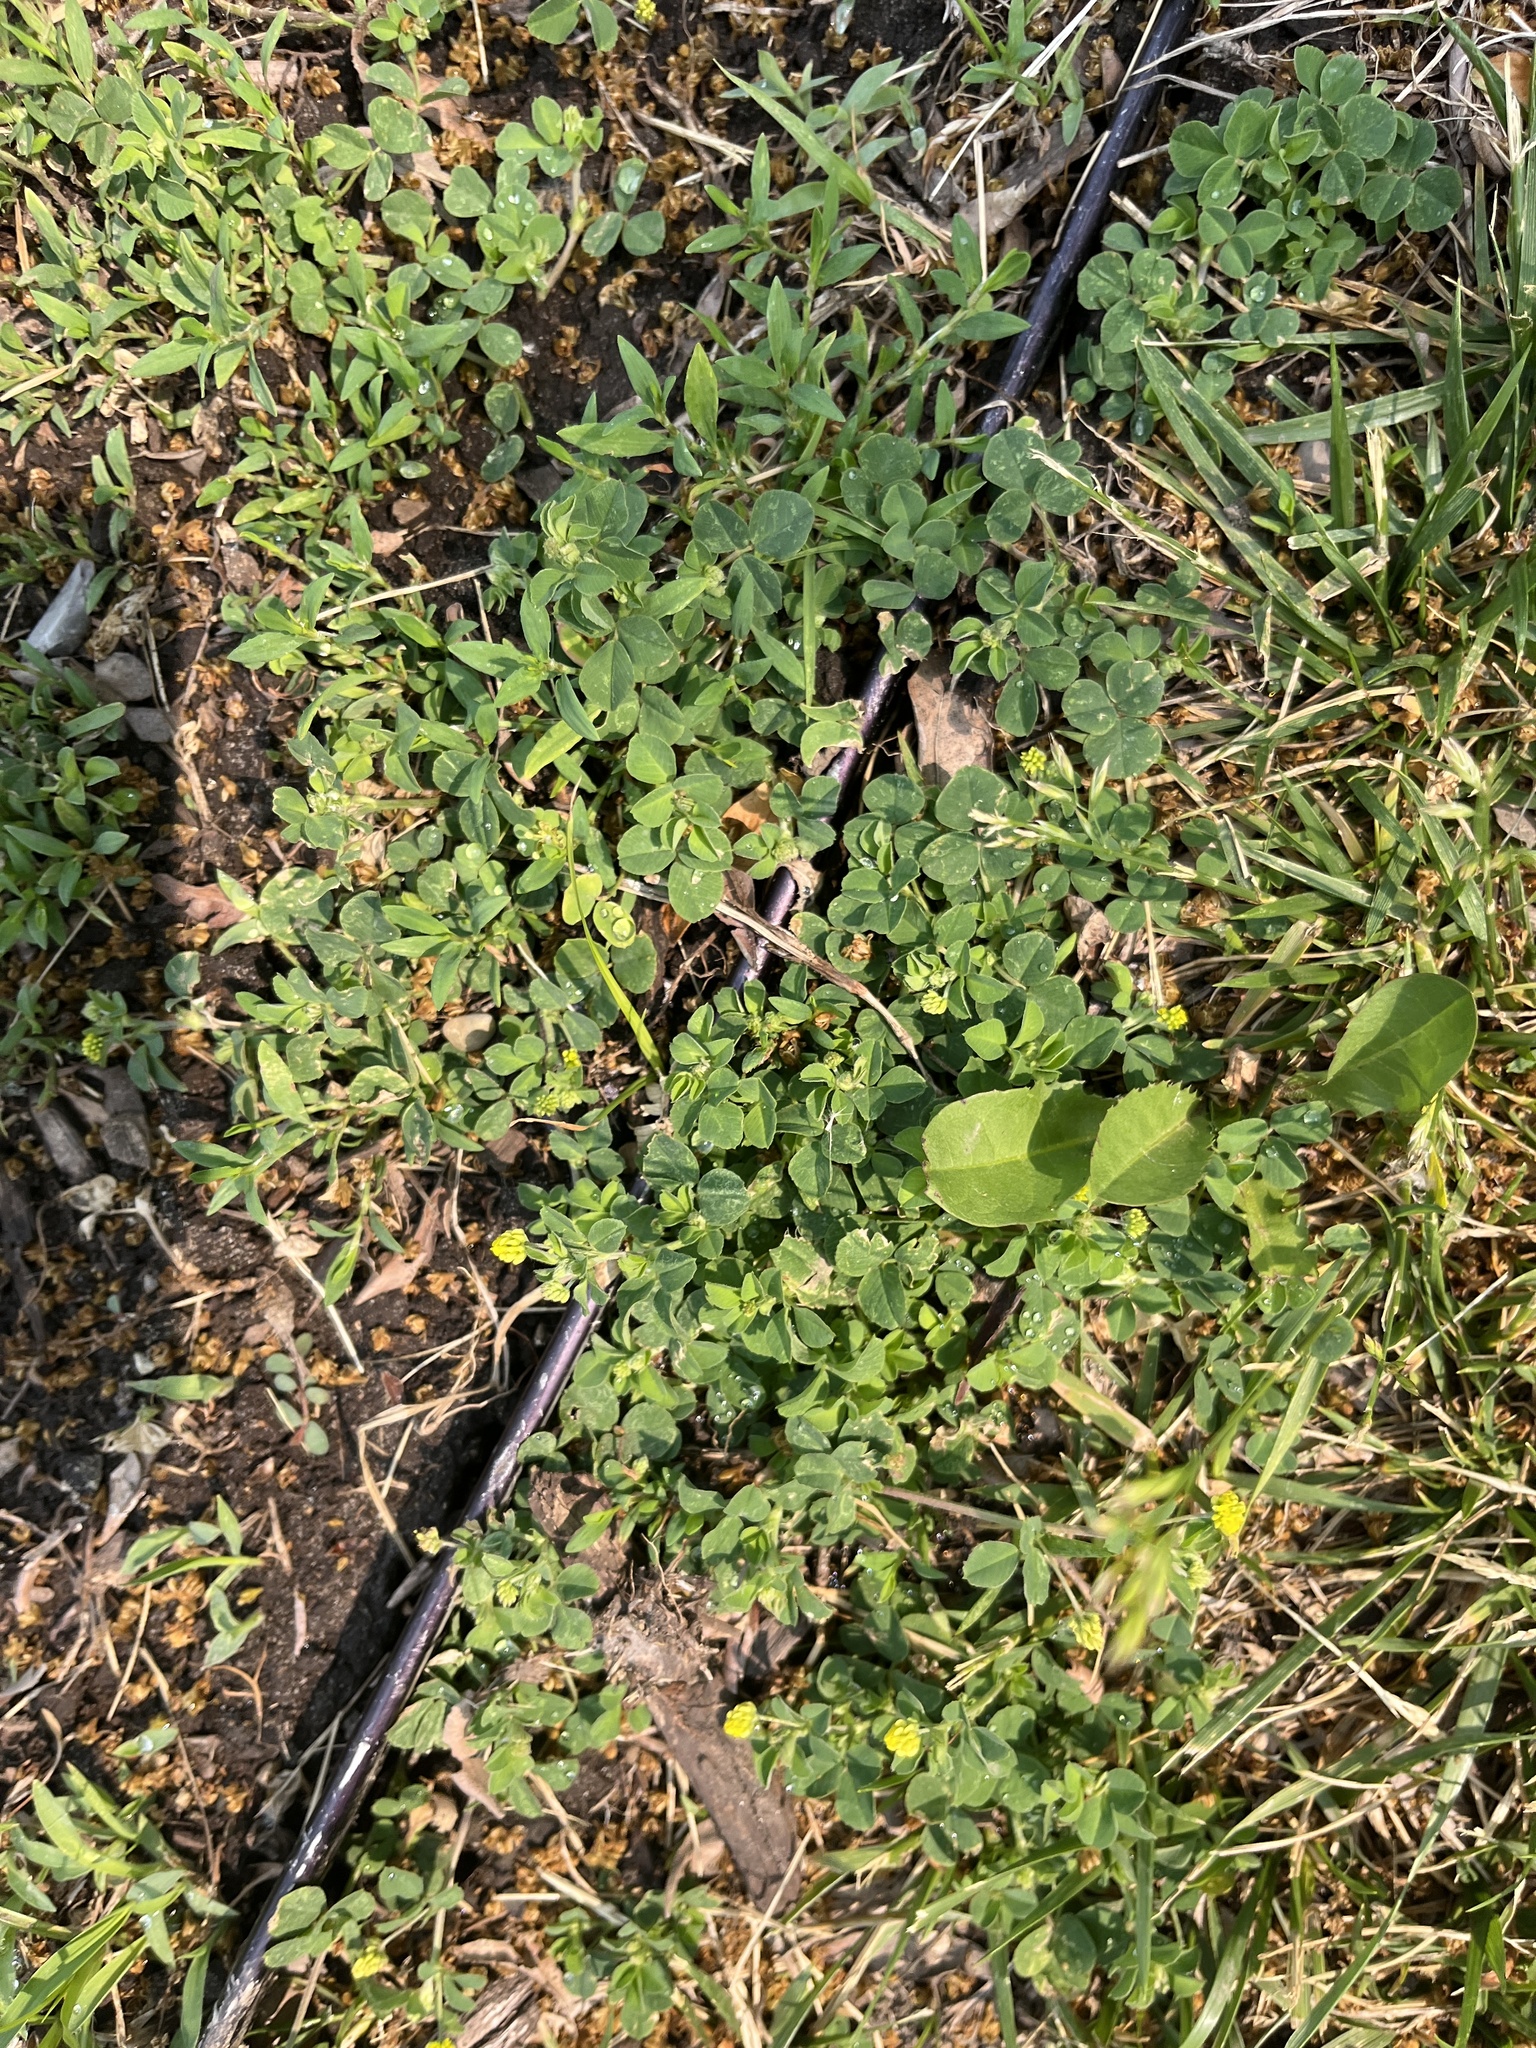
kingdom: Plantae
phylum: Tracheophyta
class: Magnoliopsida
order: Fabales
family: Fabaceae
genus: Medicago
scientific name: Medicago lupulina
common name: Black medick
